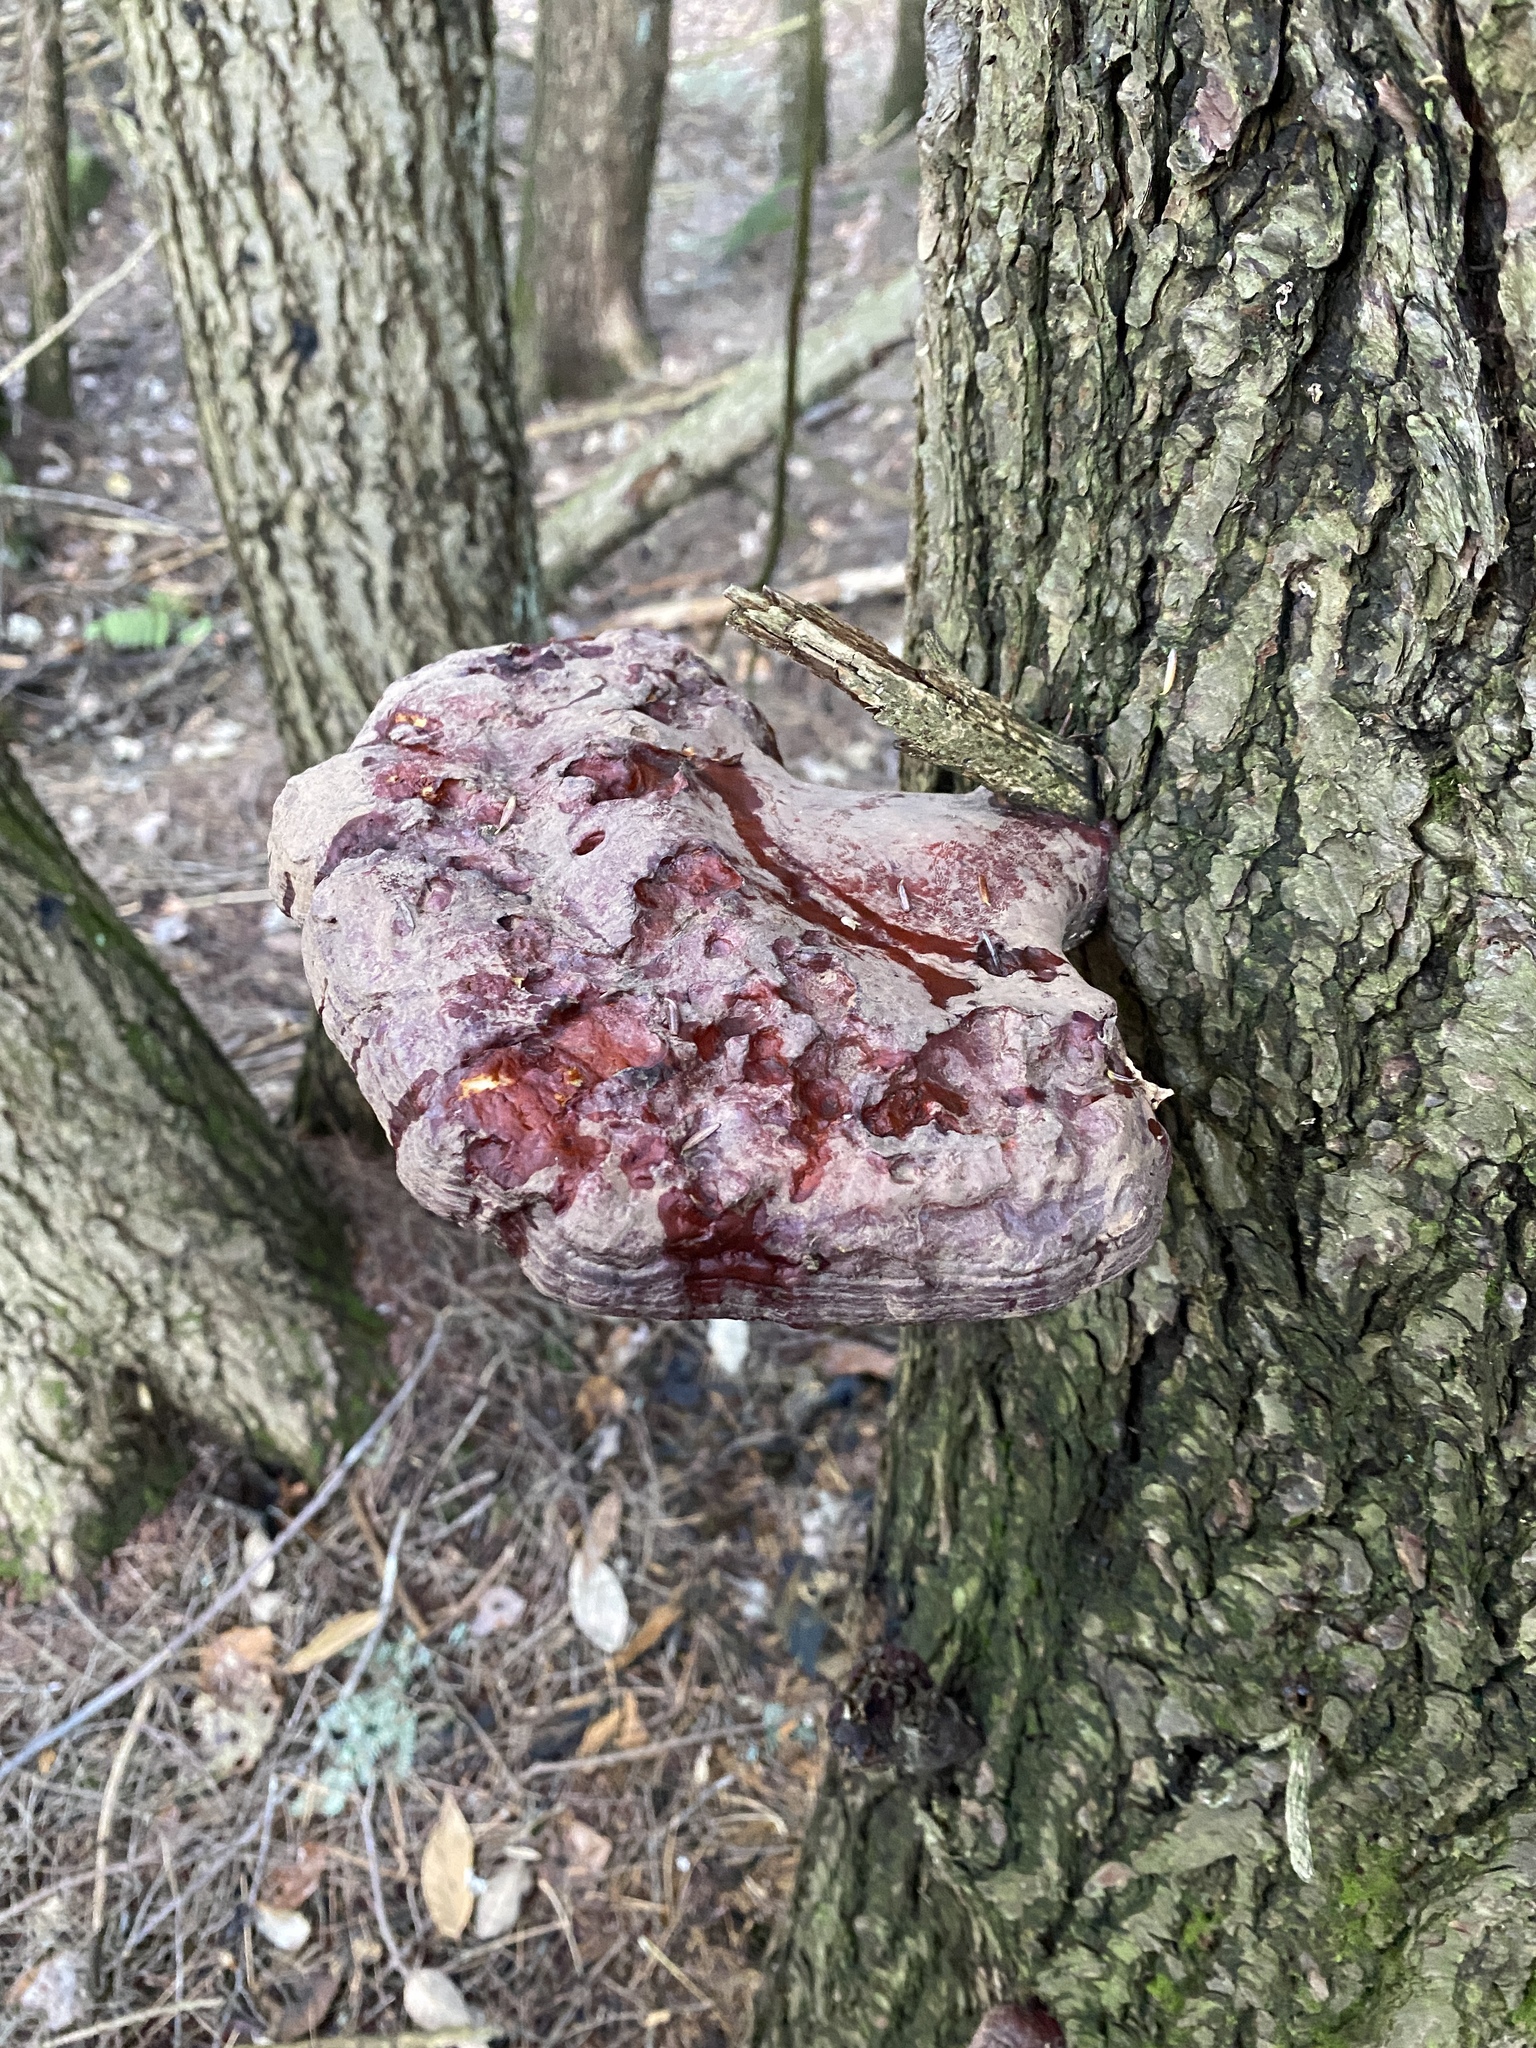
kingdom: Fungi
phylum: Basidiomycota
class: Agaricomycetes
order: Polyporales
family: Polyporaceae
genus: Ganoderma
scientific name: Ganoderma tsugae
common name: Hemlock varnish shelf
